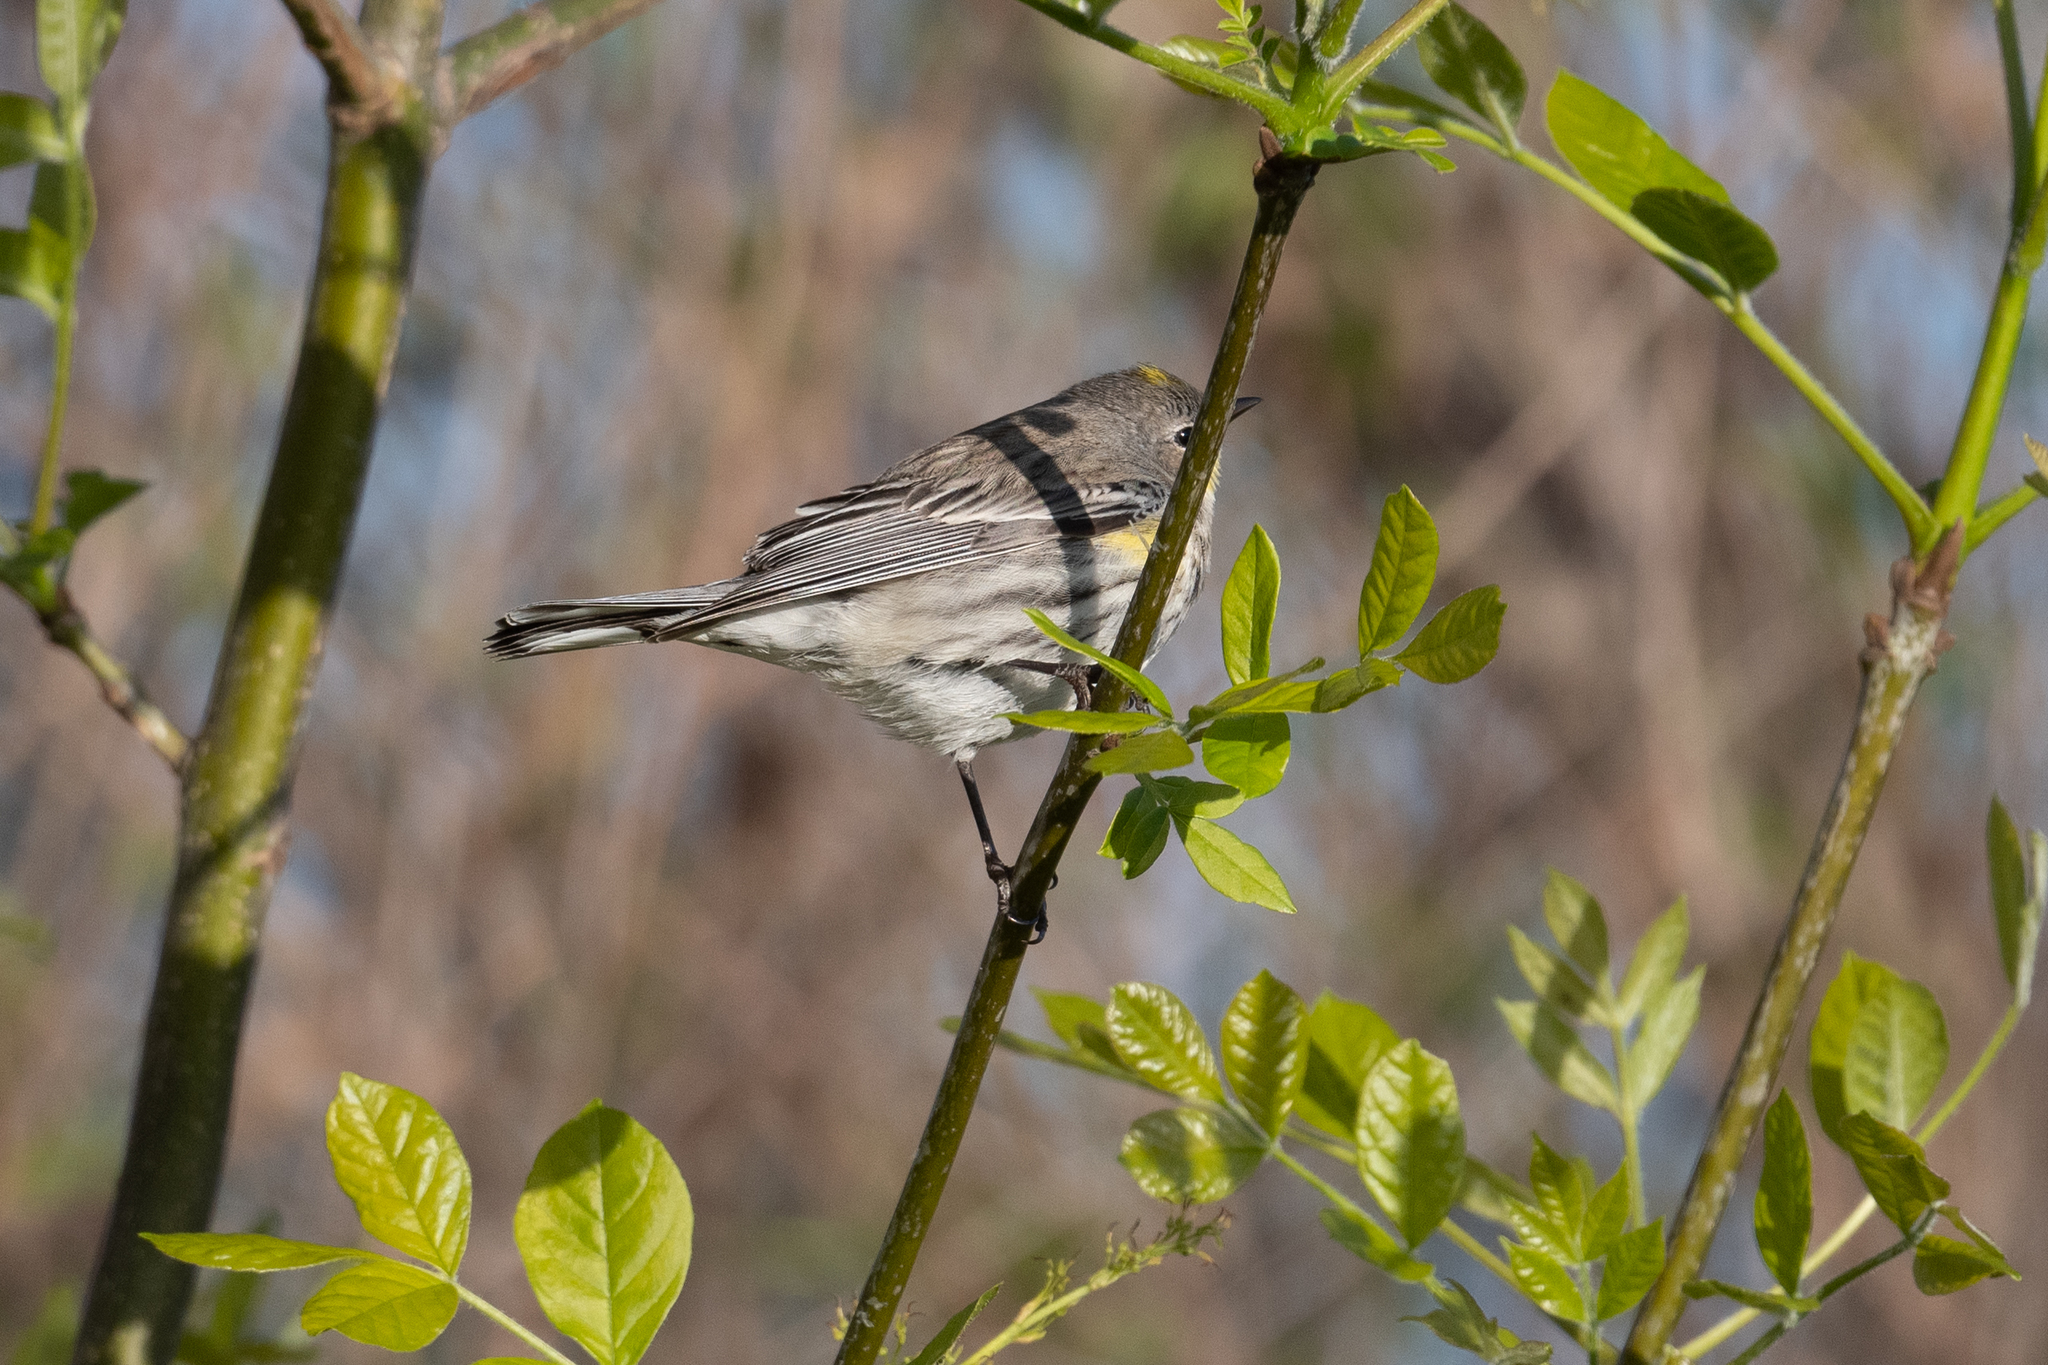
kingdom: Animalia
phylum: Chordata
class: Aves
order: Passeriformes
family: Parulidae
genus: Setophaga
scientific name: Setophaga coronata
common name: Myrtle warbler
